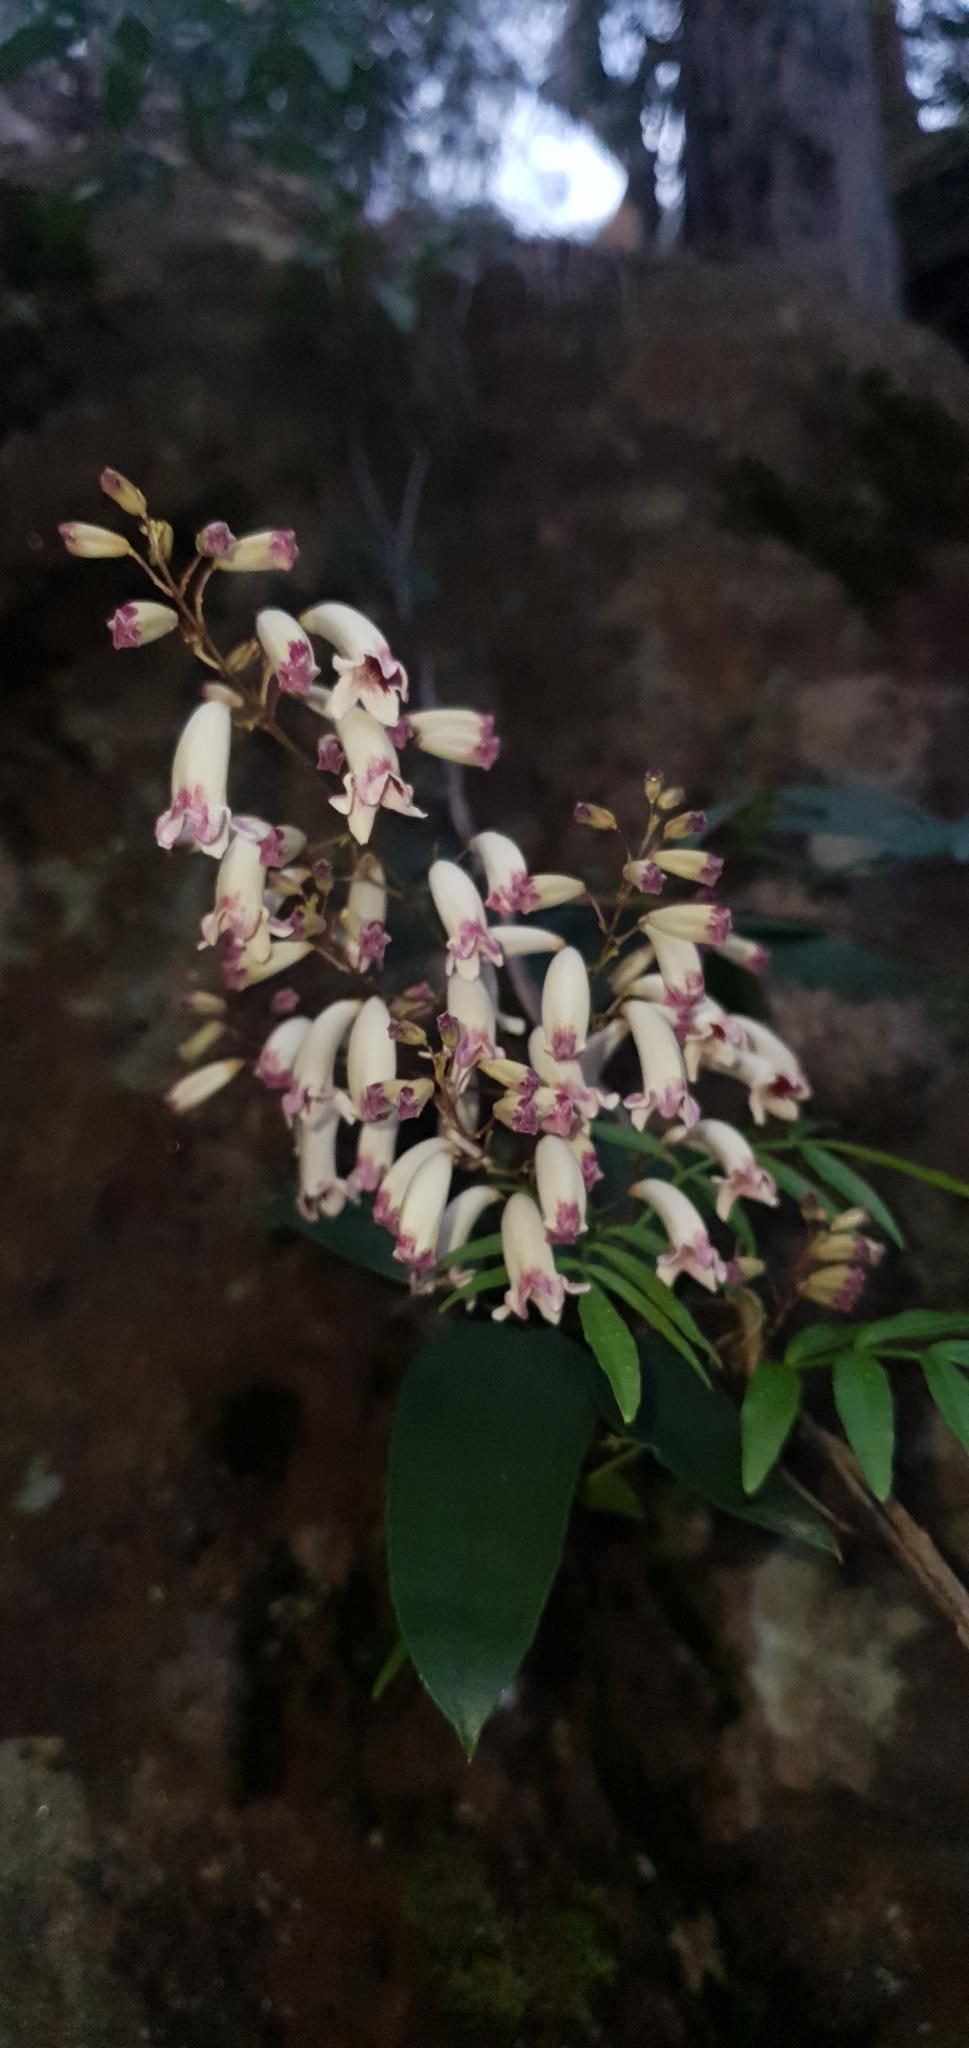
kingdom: Plantae
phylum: Tracheophyta
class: Magnoliopsida
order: Lamiales
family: Bignoniaceae
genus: Pandorea
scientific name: Pandorea pandorana
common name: Wonga-wonga-vine
